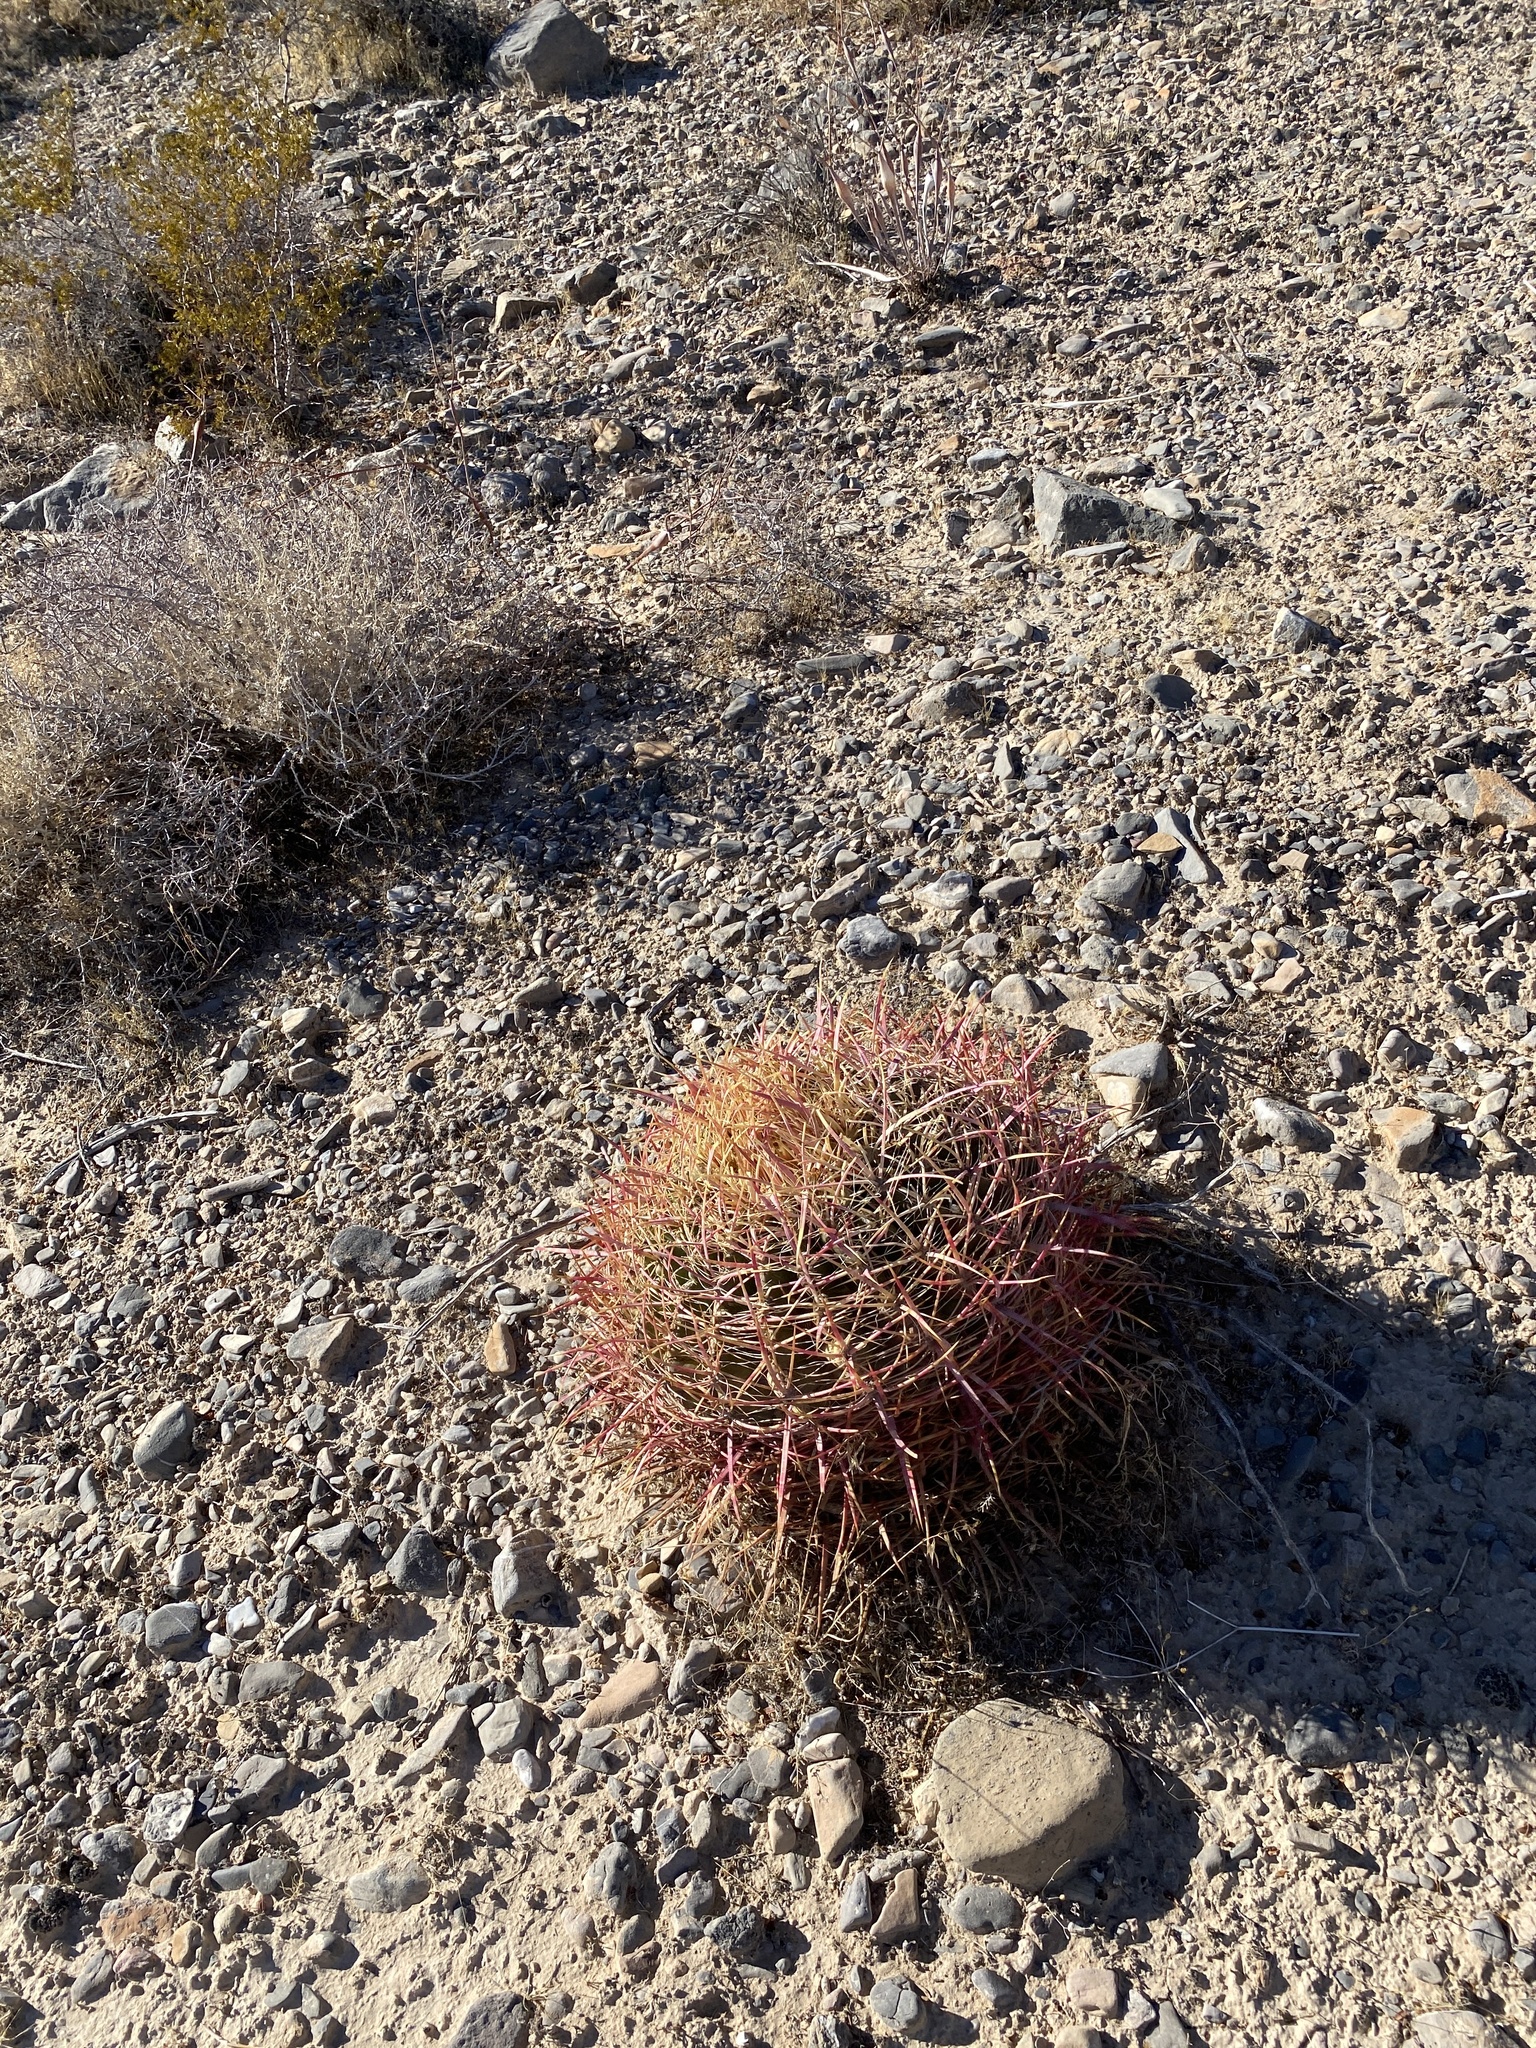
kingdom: Plantae
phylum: Tracheophyta
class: Magnoliopsida
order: Caryophyllales
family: Cactaceae
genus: Ferocactus
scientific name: Ferocactus cylindraceus
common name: California barrel cactus
